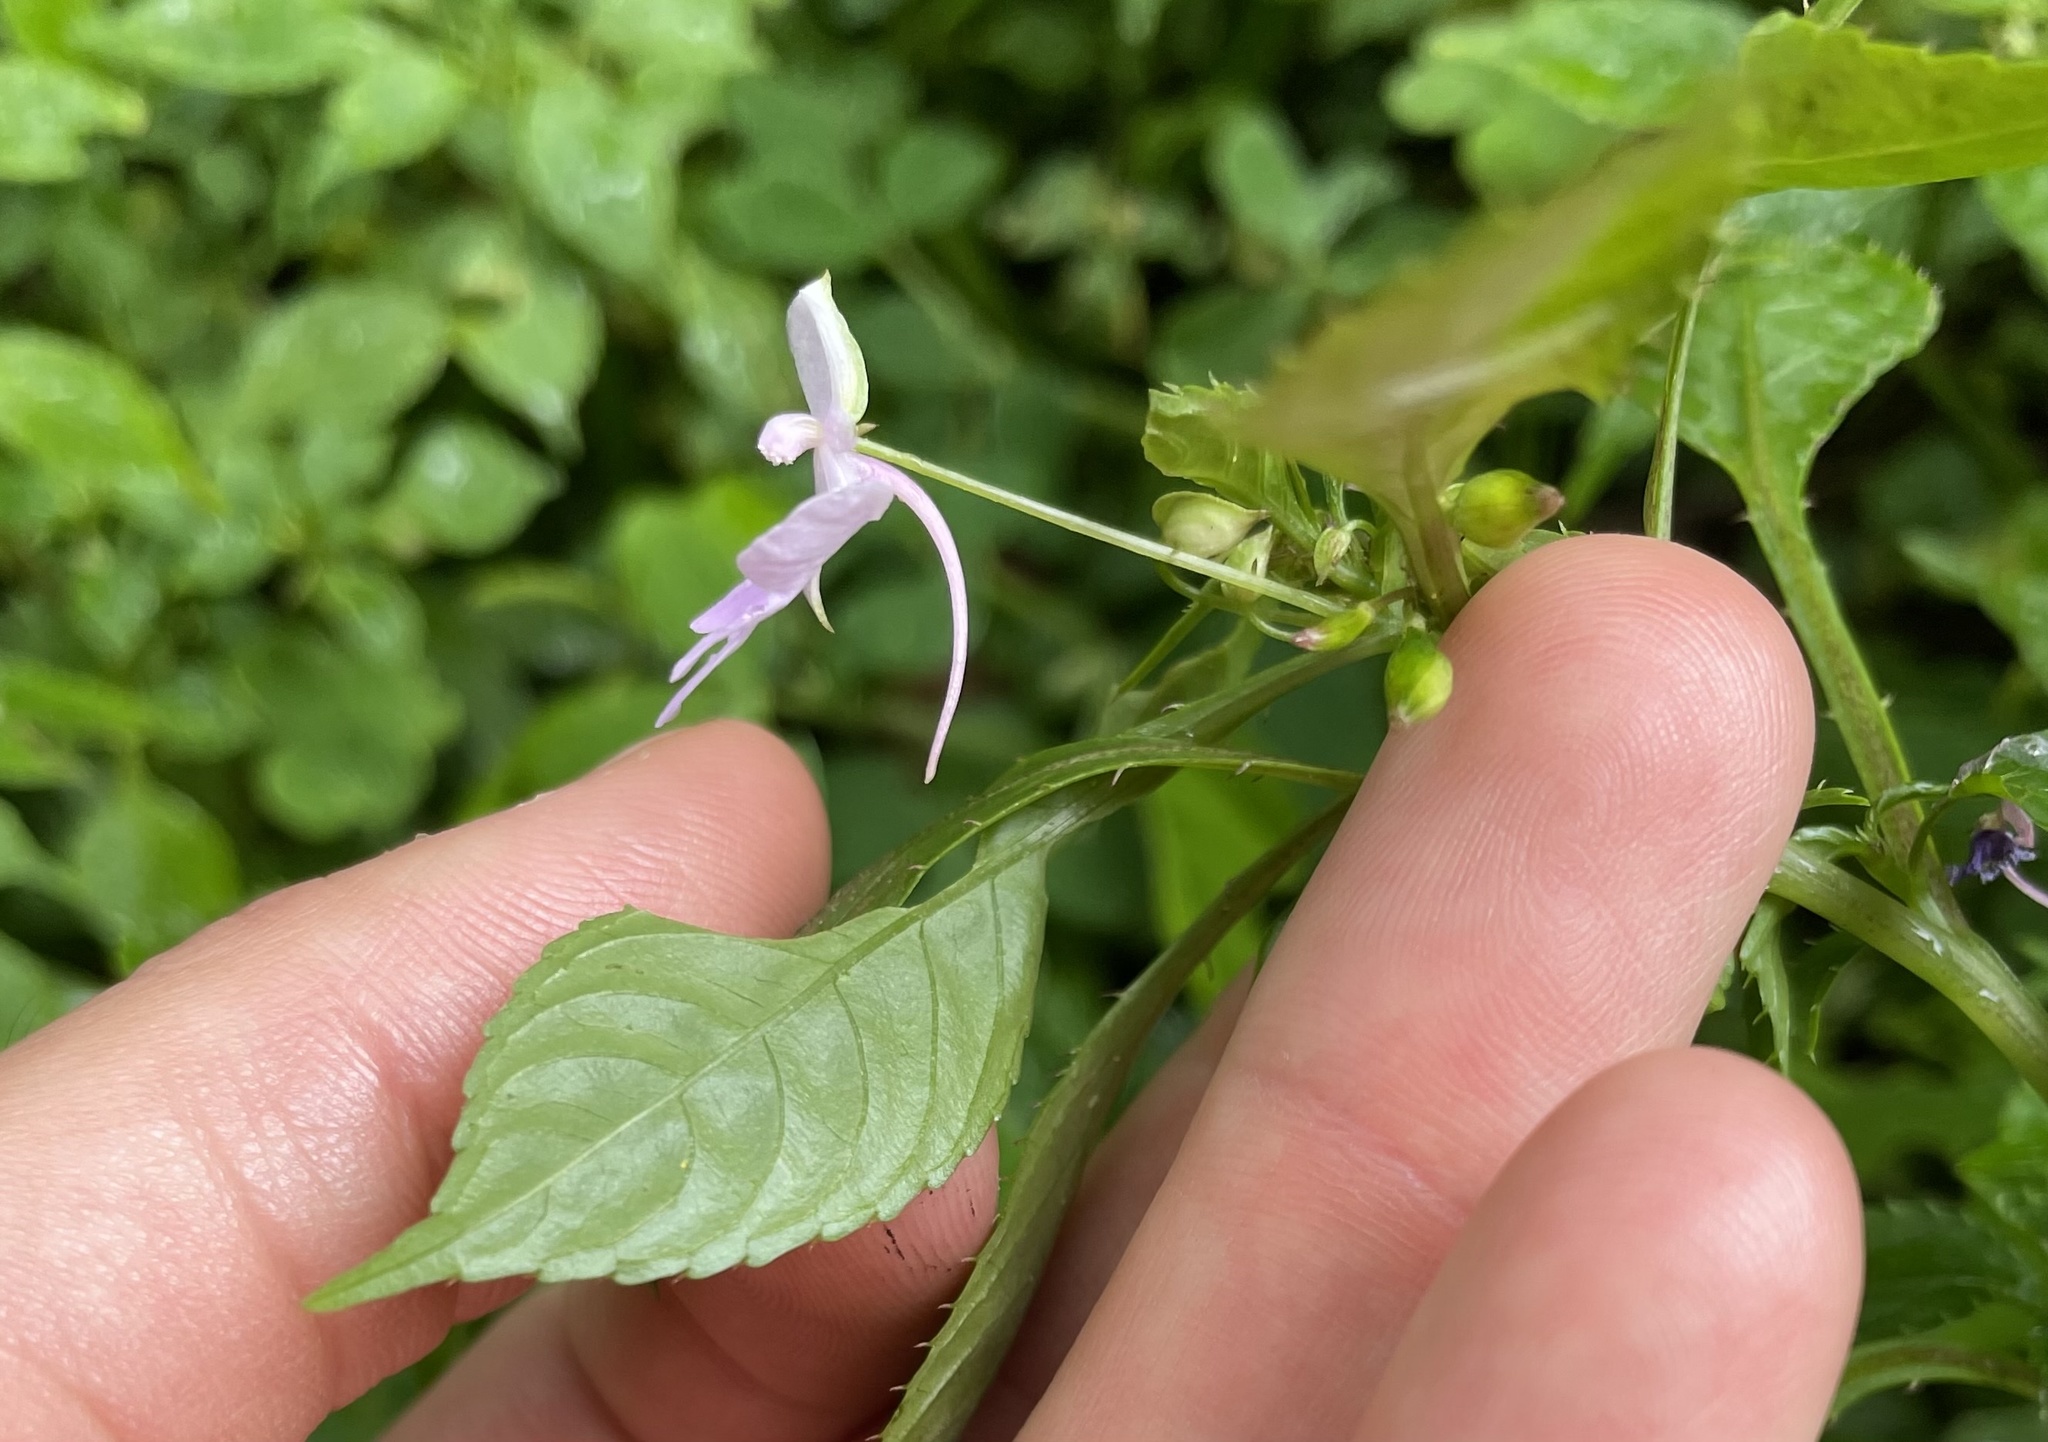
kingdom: Plantae
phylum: Tracheophyta
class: Magnoliopsida
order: Ericales
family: Balsaminaceae
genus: Impatiens
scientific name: Impatiens hochstetteri
